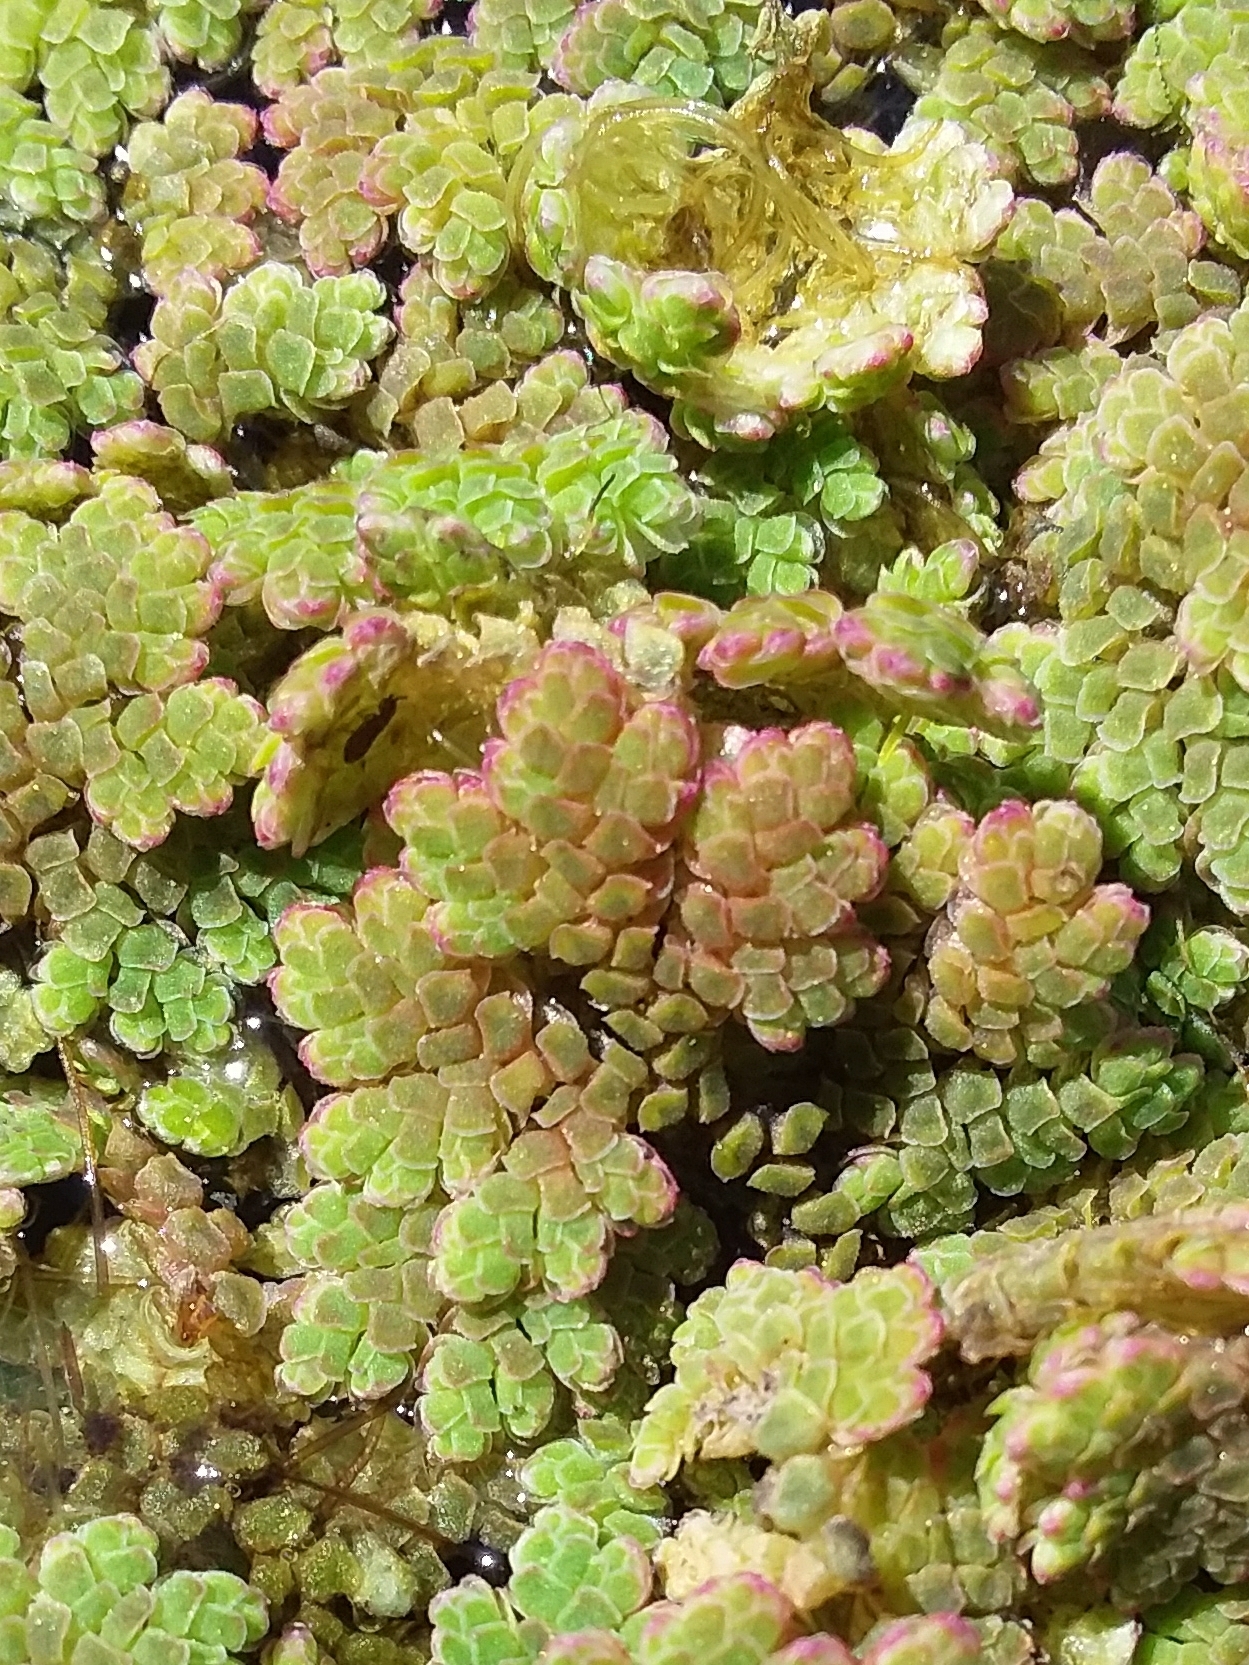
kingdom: Plantae
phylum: Tracheophyta
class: Polypodiopsida
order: Salviniales
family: Salviniaceae
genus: Azolla
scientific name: Azolla rubra
